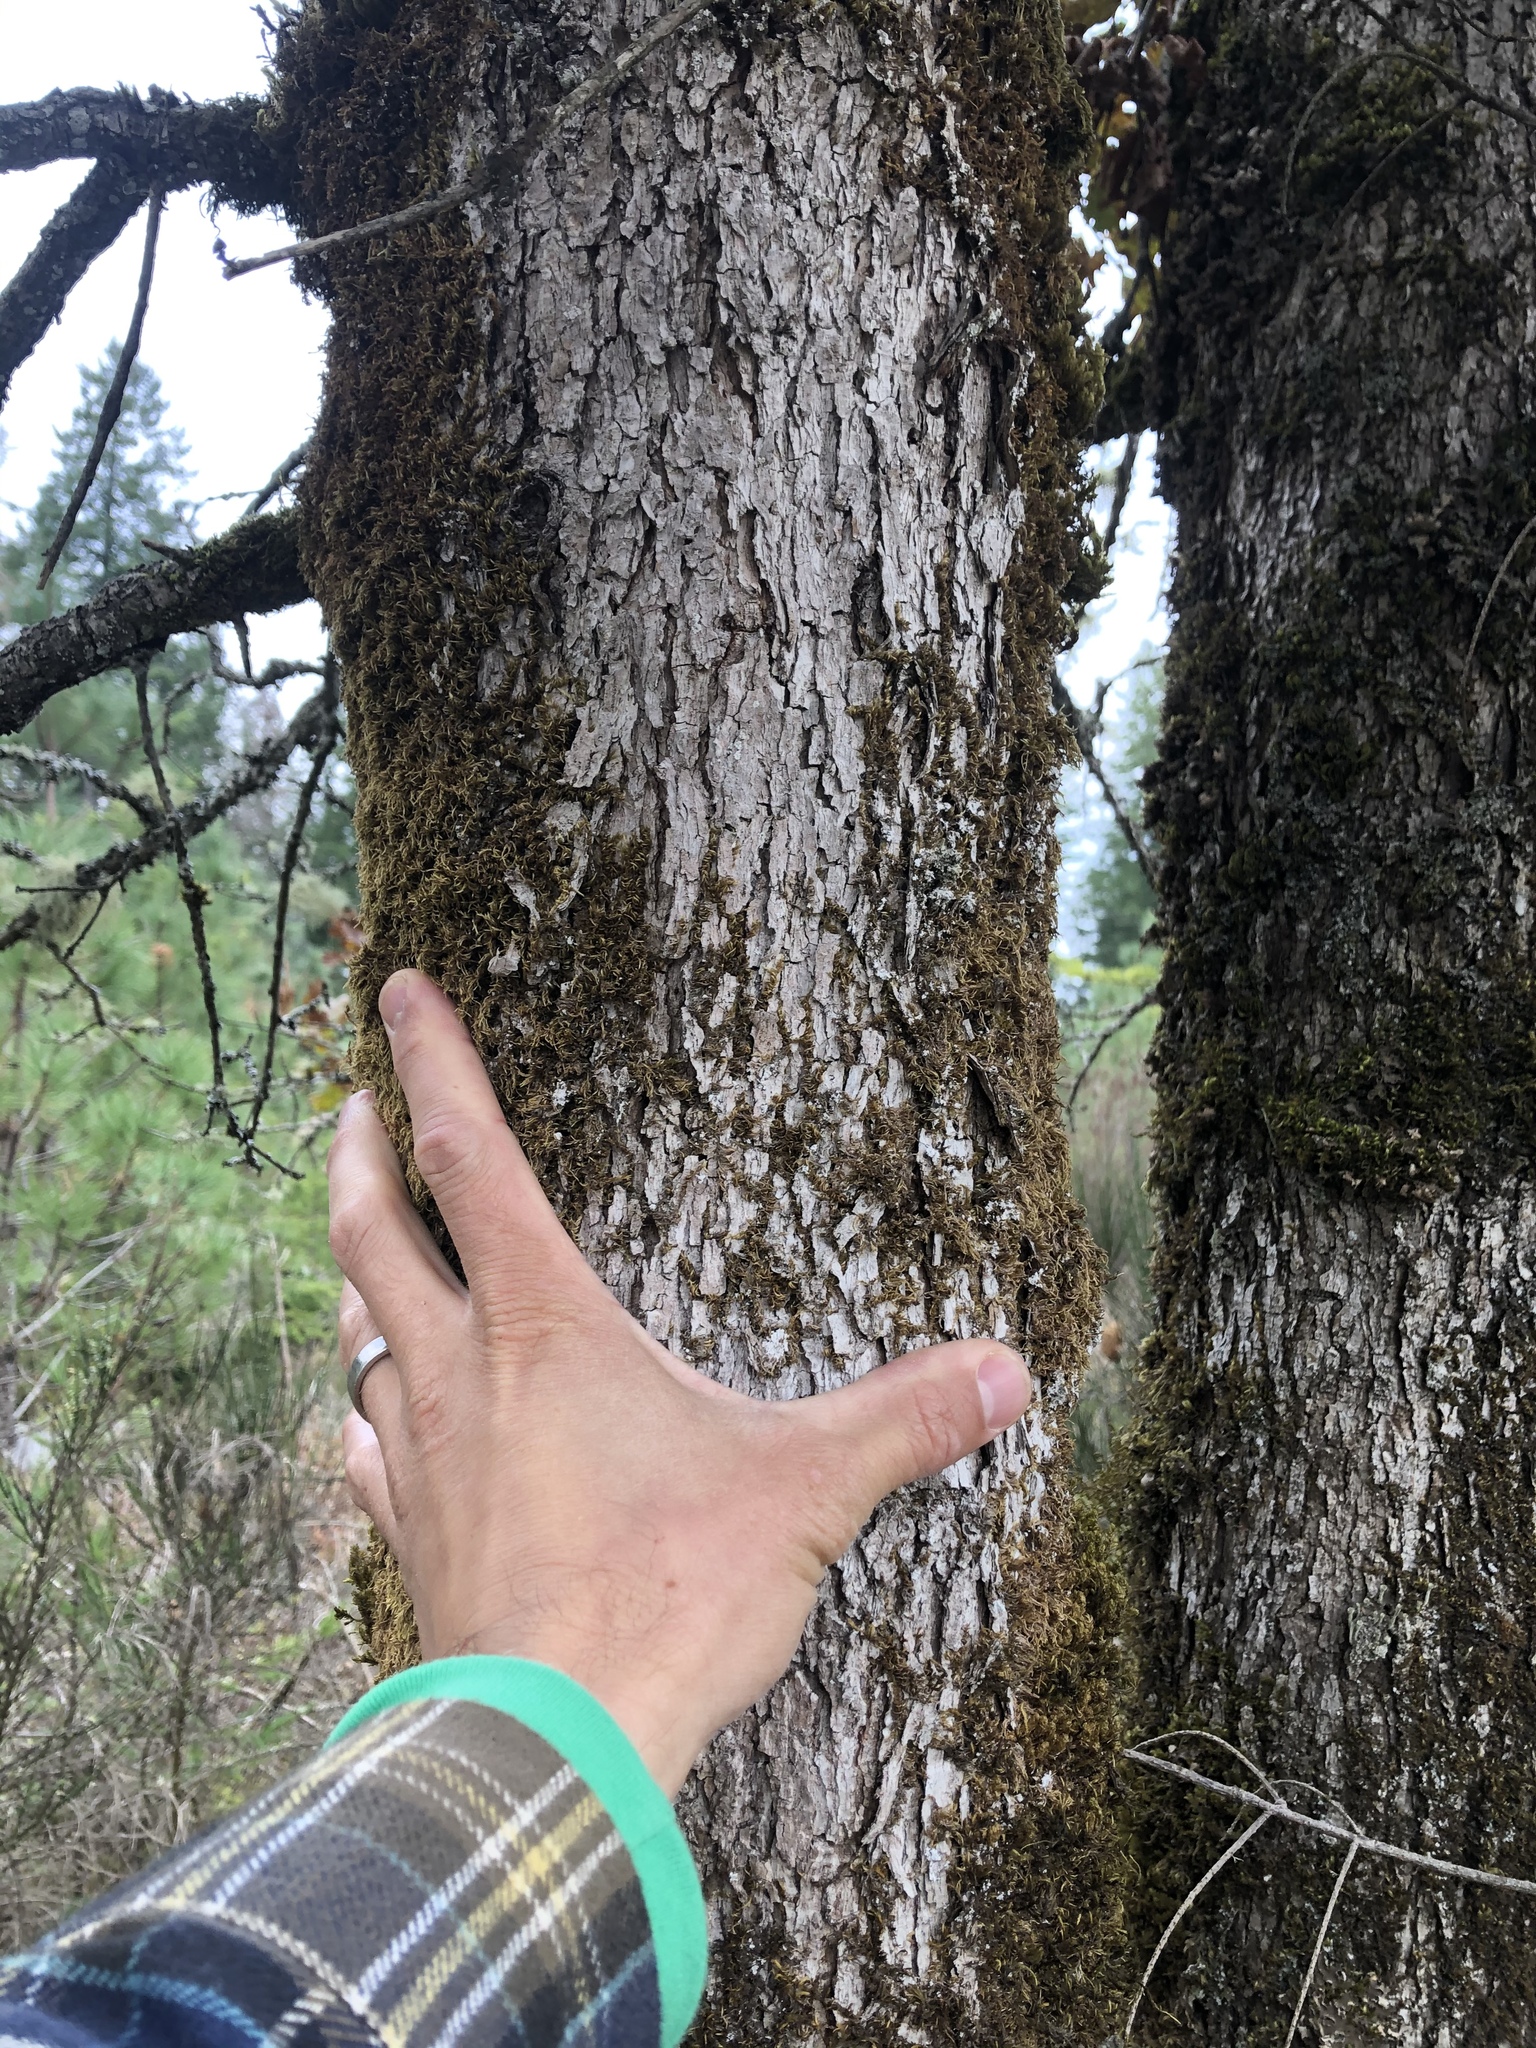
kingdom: Plantae
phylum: Tracheophyta
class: Magnoliopsida
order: Fagales
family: Fagaceae
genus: Quercus
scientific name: Quercus garryana
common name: Garry oak
